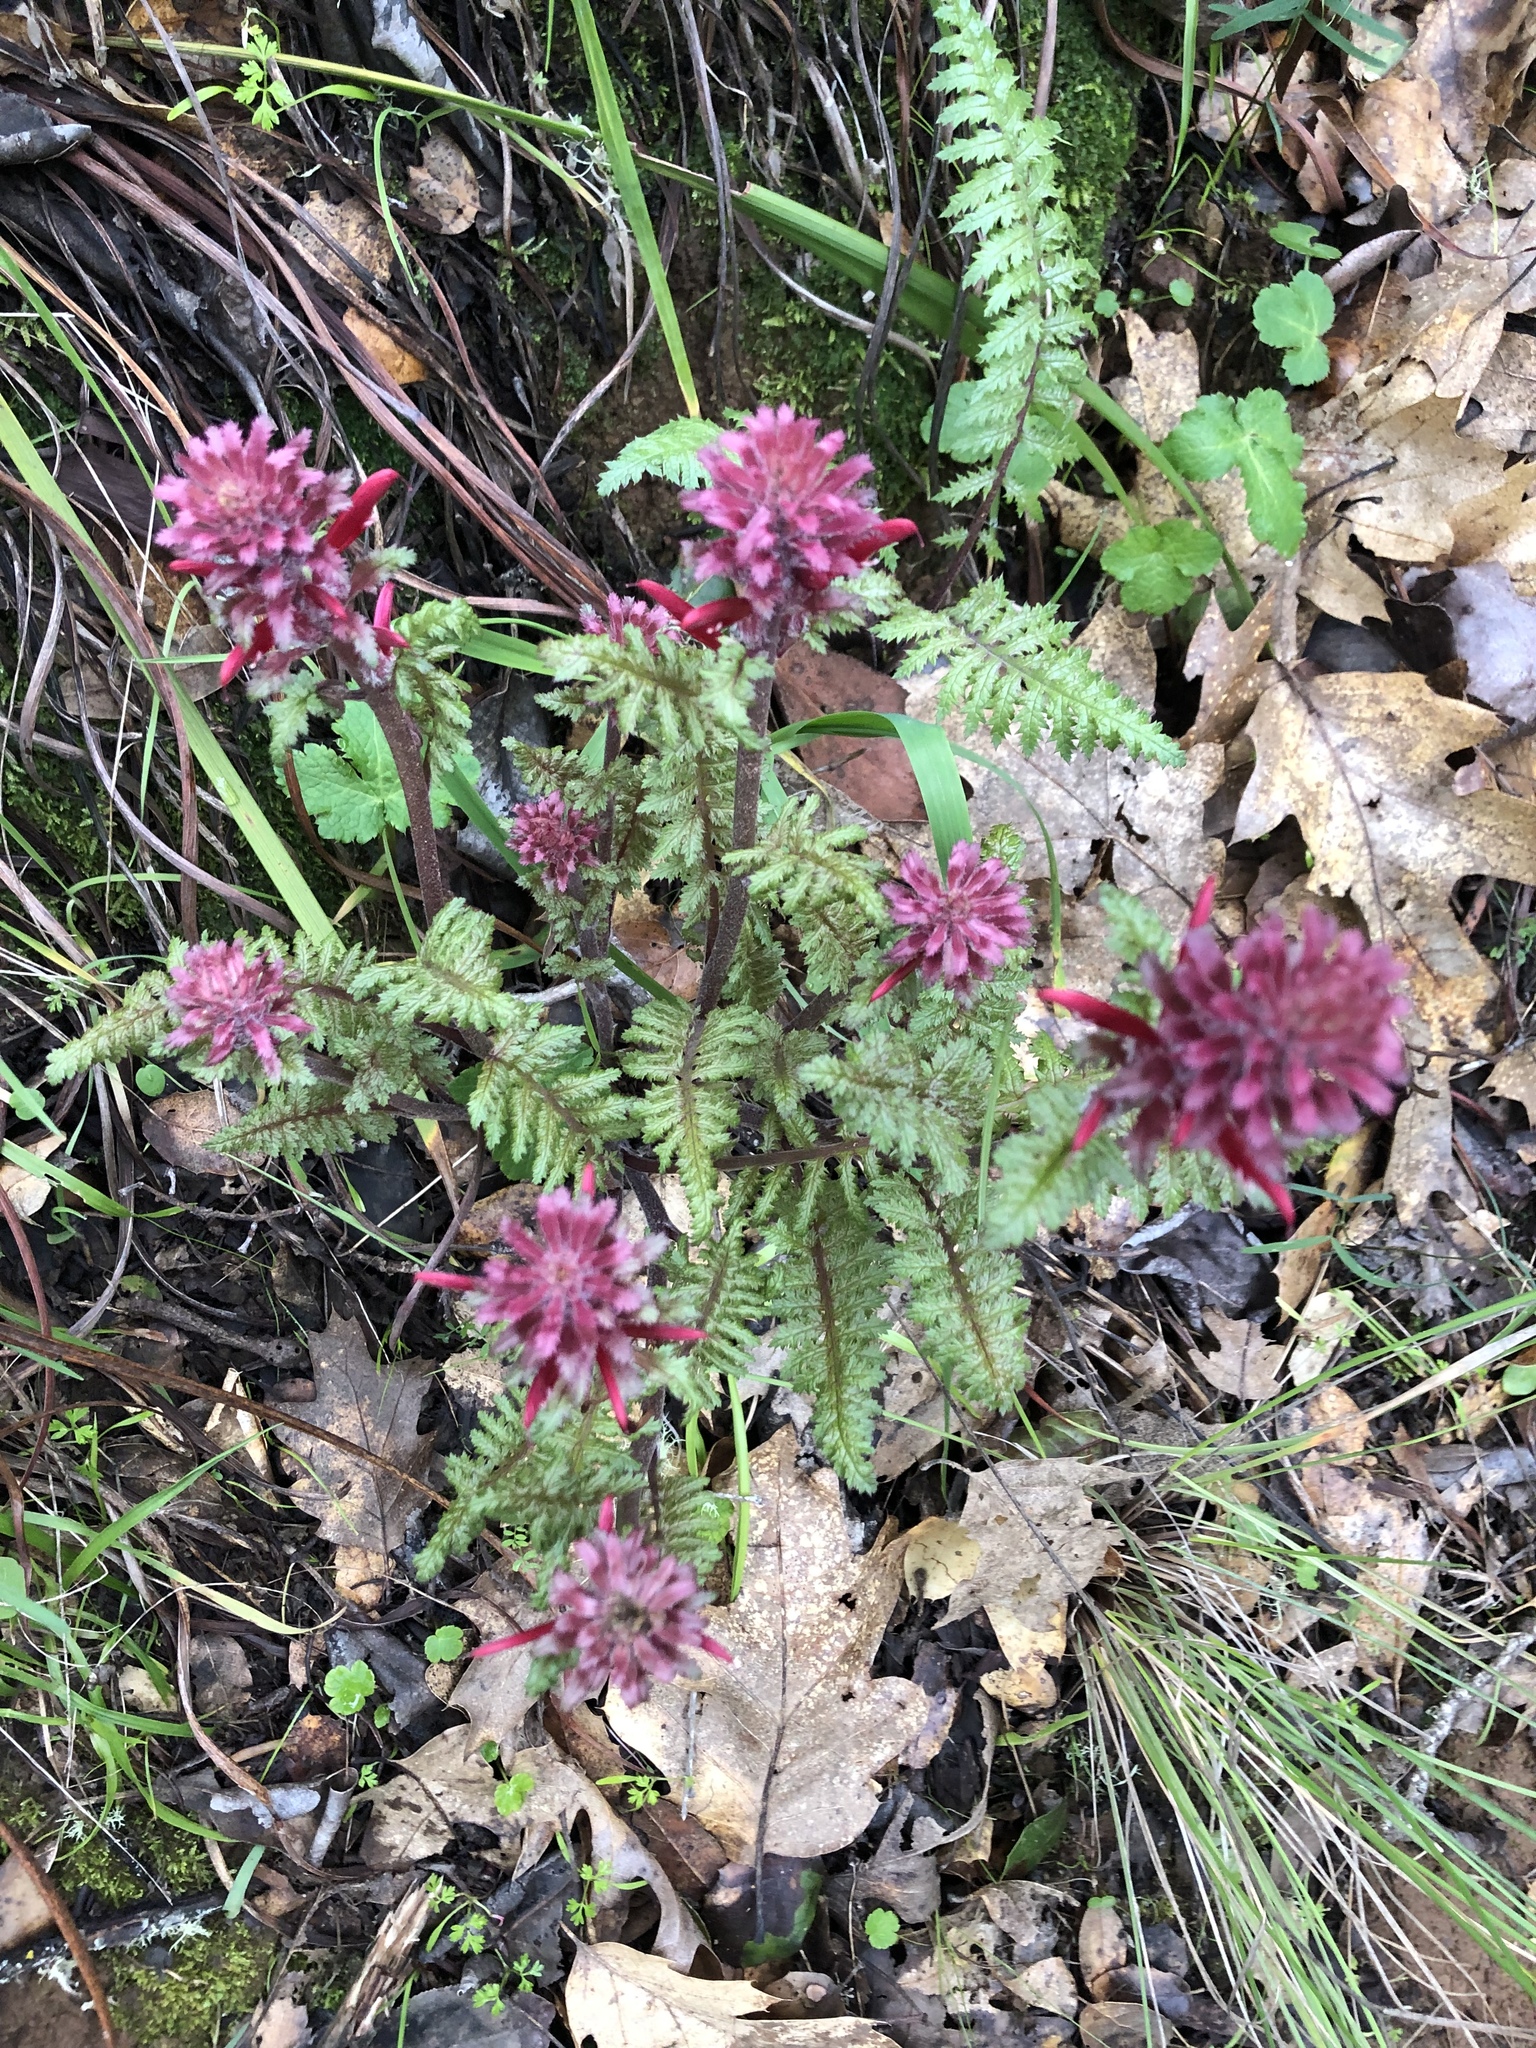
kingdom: Plantae
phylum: Tracheophyta
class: Magnoliopsida
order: Lamiales
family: Orobanchaceae
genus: Pedicularis
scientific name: Pedicularis densiflora
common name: Indian warrior
